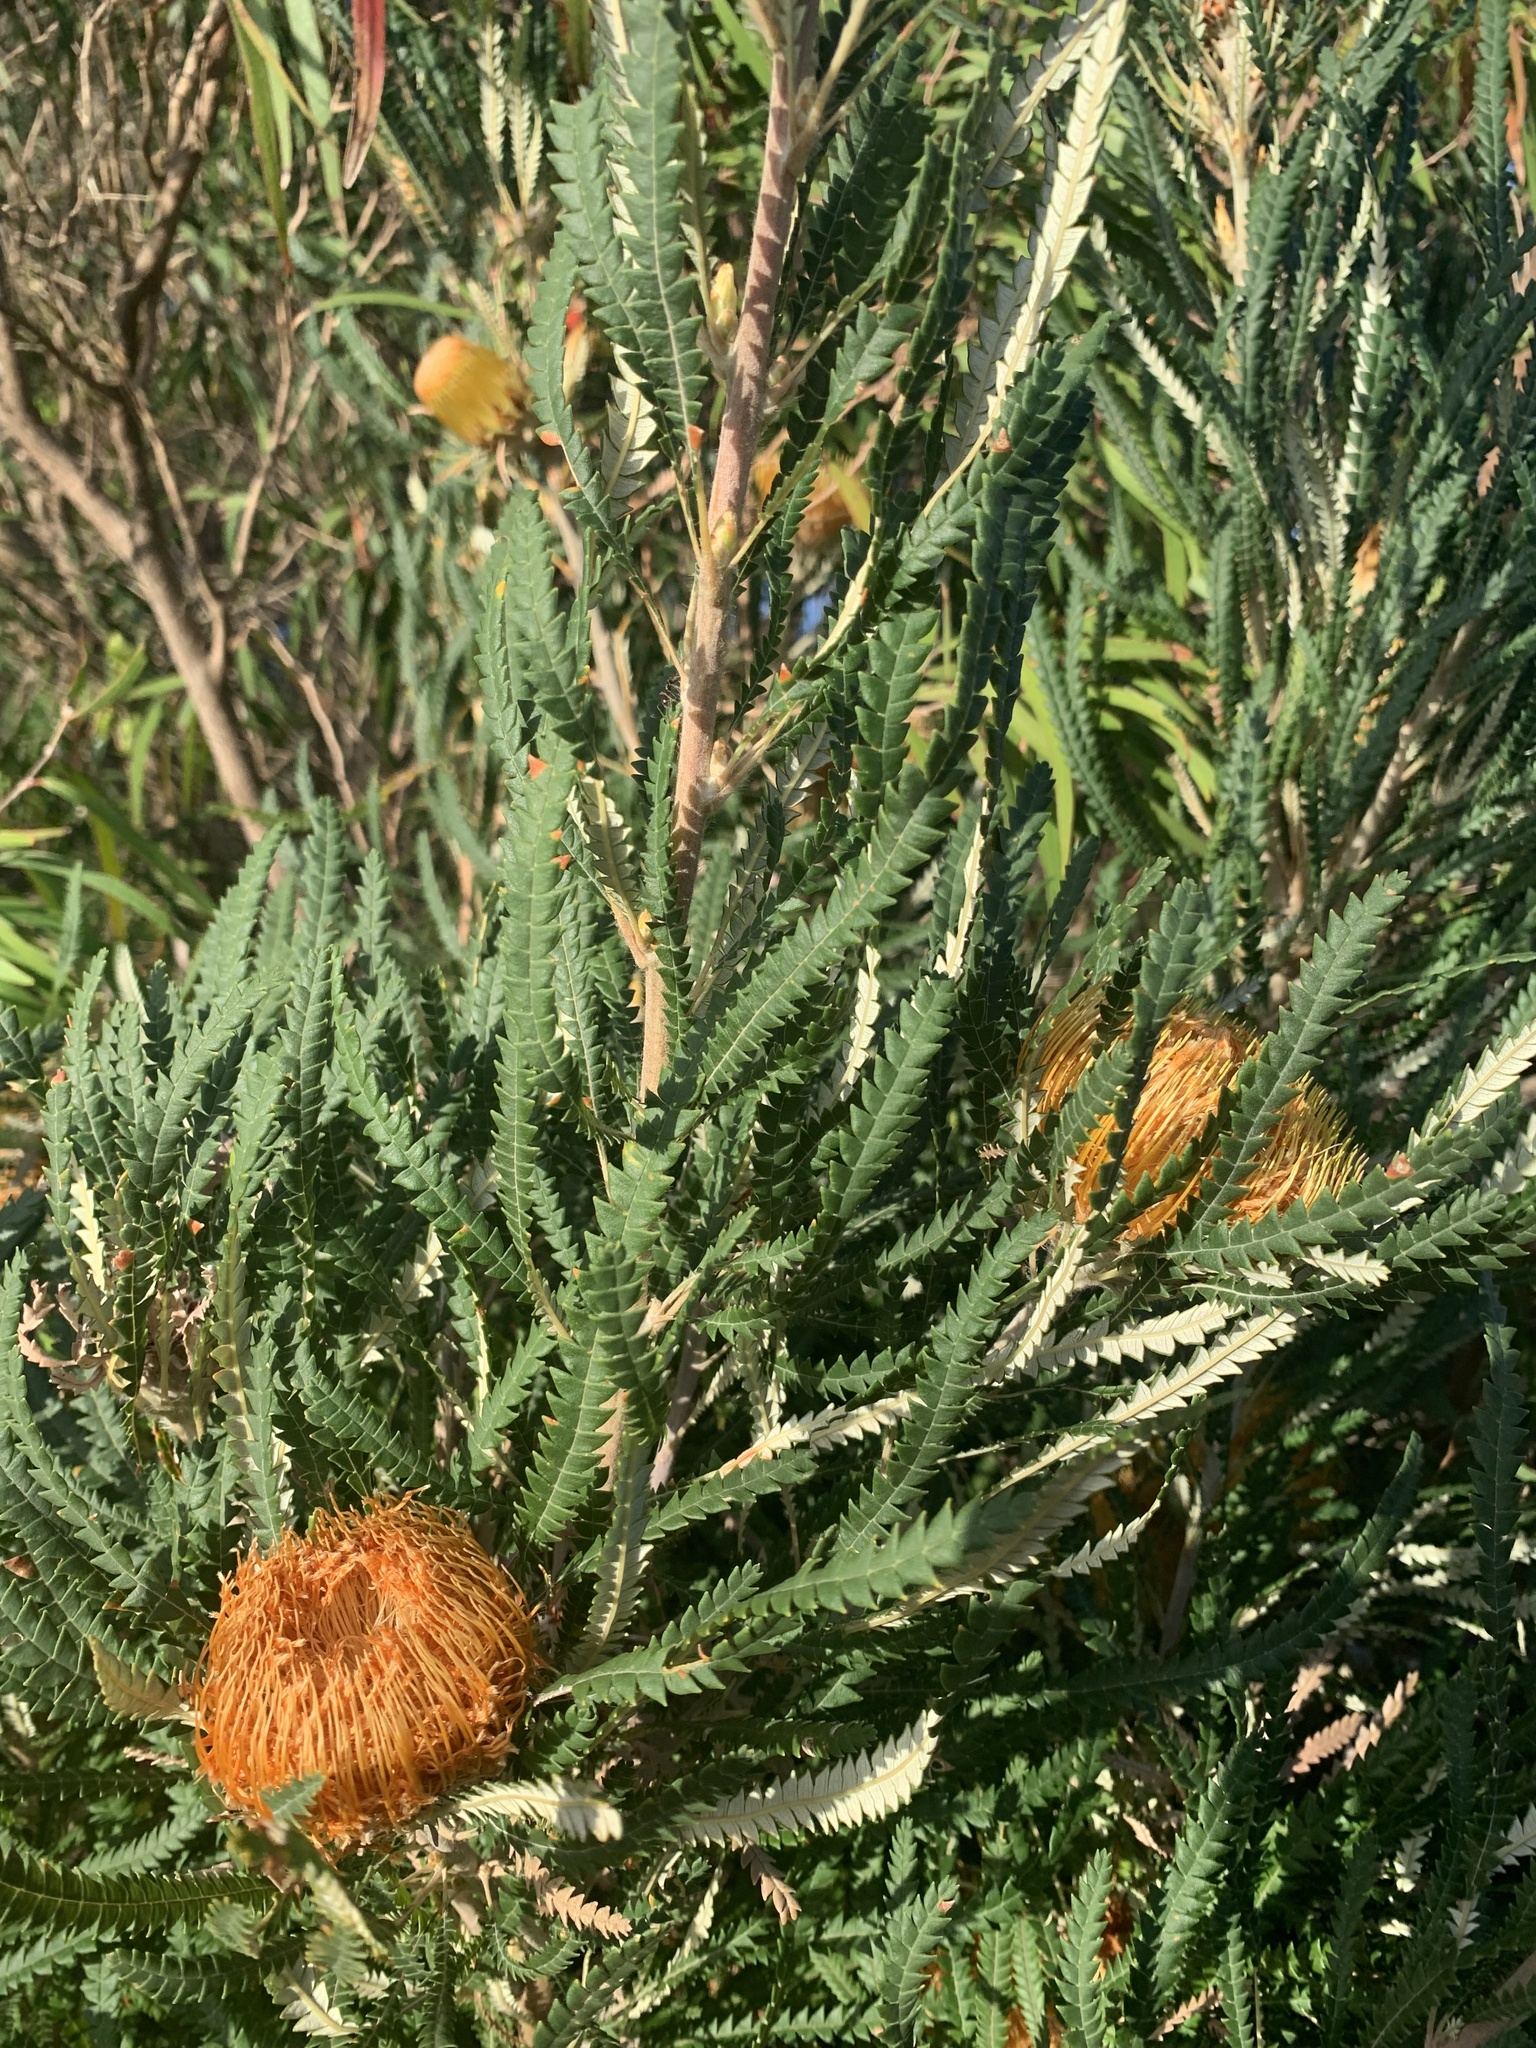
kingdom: Plantae
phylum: Tracheophyta
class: Magnoliopsida
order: Proteales
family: Proteaceae
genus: Banksia
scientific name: Banksia formosa
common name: Showy dryandra
